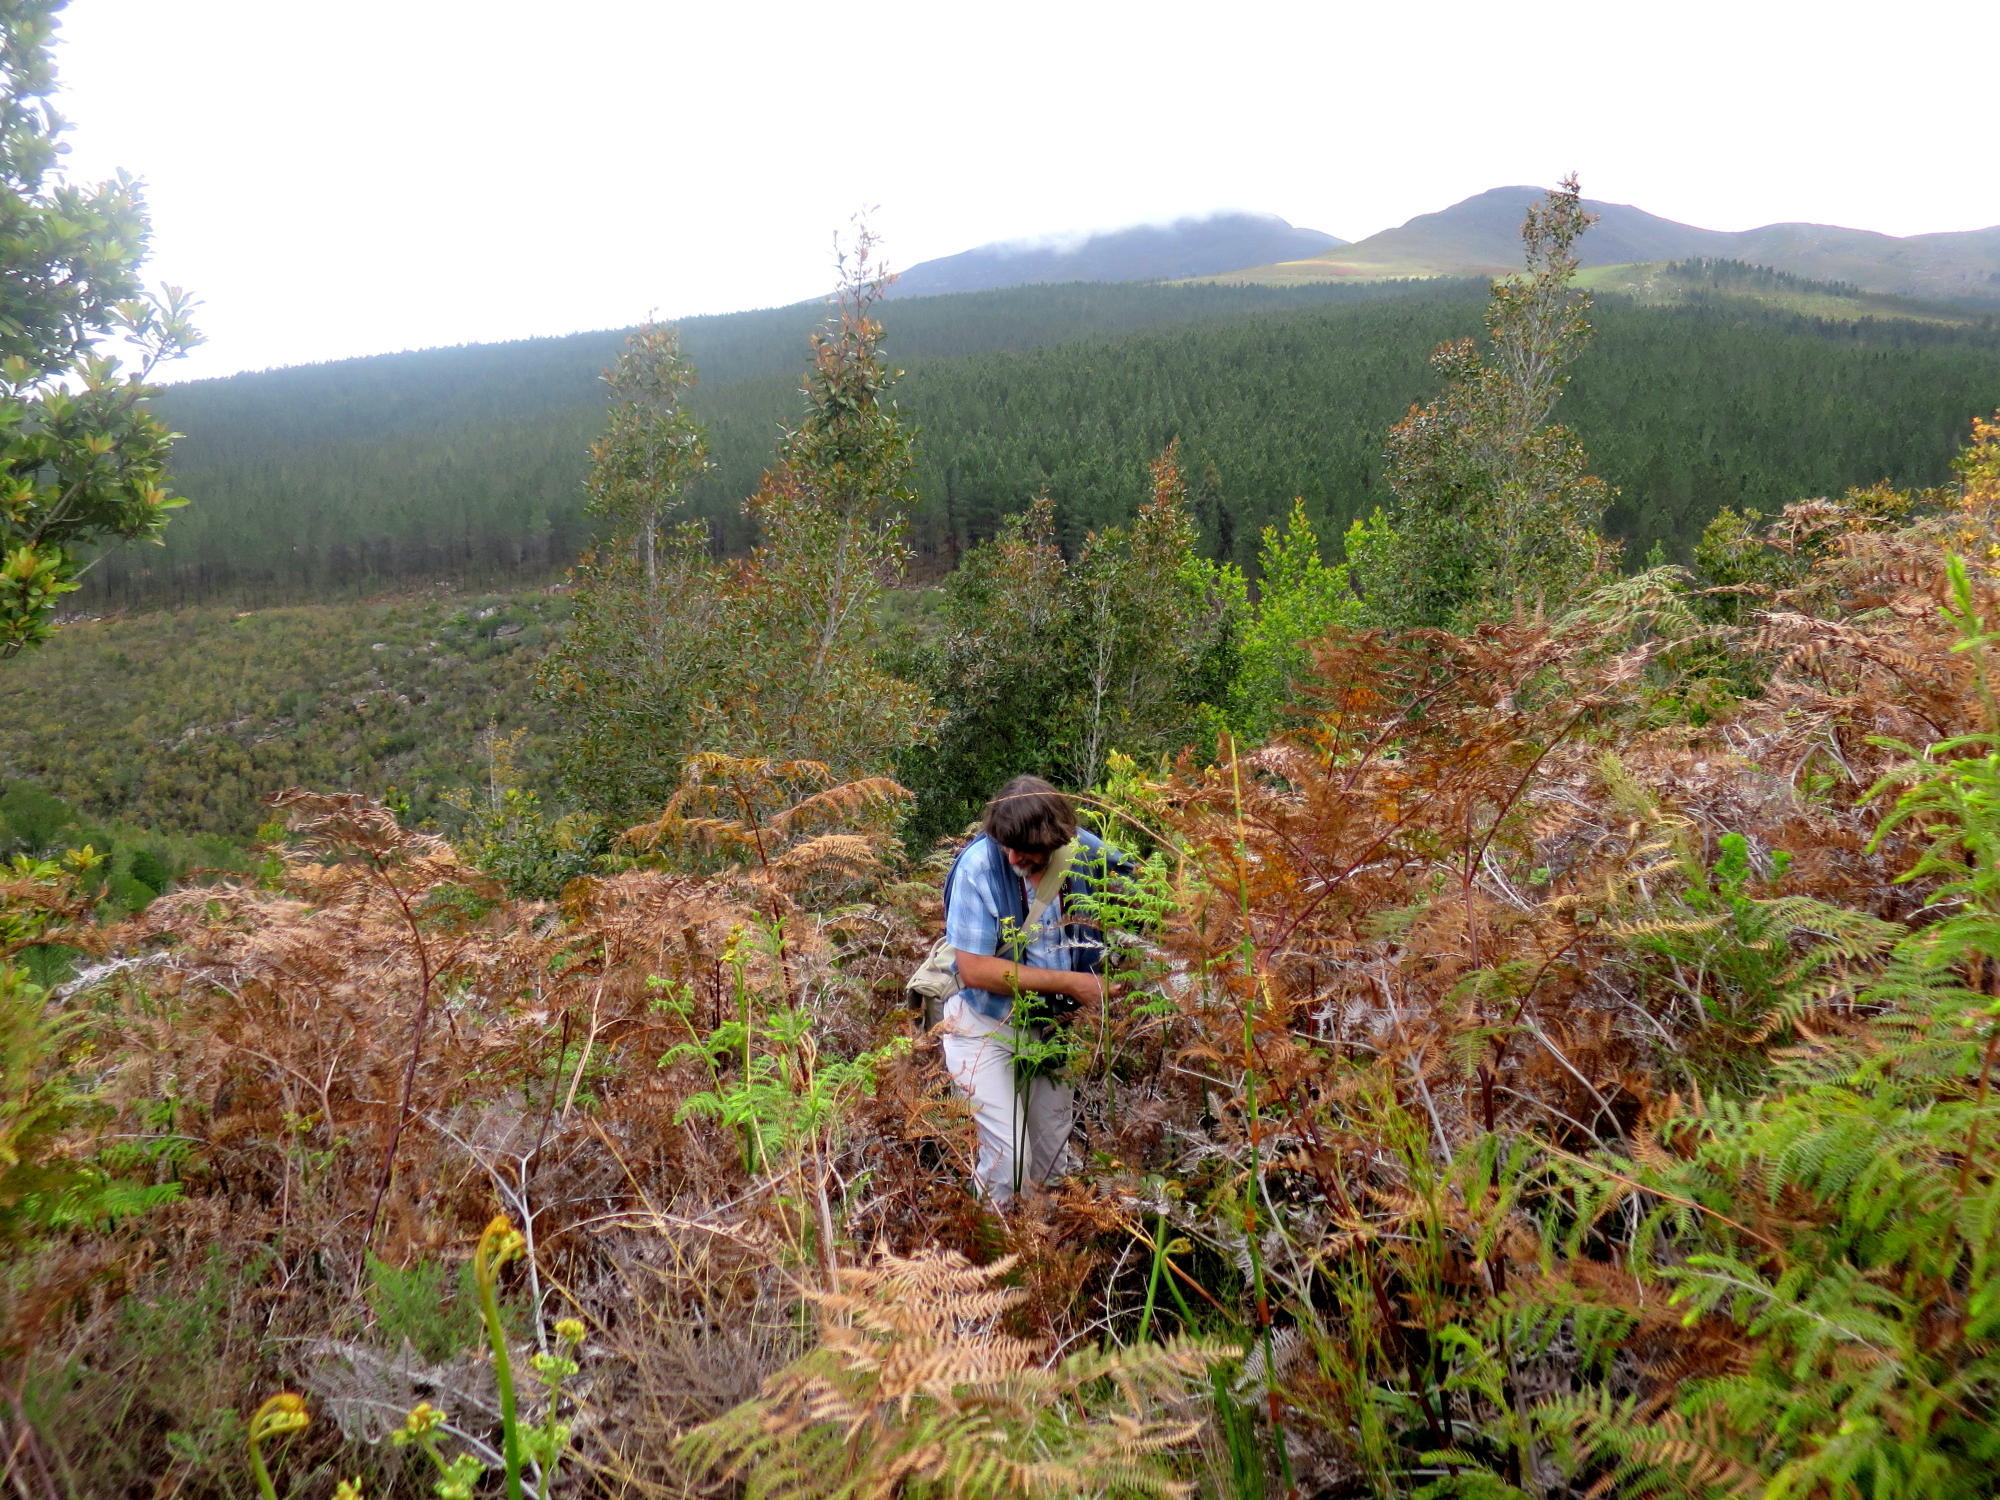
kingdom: Plantae
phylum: Tracheophyta
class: Polypodiopsida
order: Polypodiales
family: Dennstaedtiaceae
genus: Pteridium
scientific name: Pteridium aquilinum
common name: Bracken
